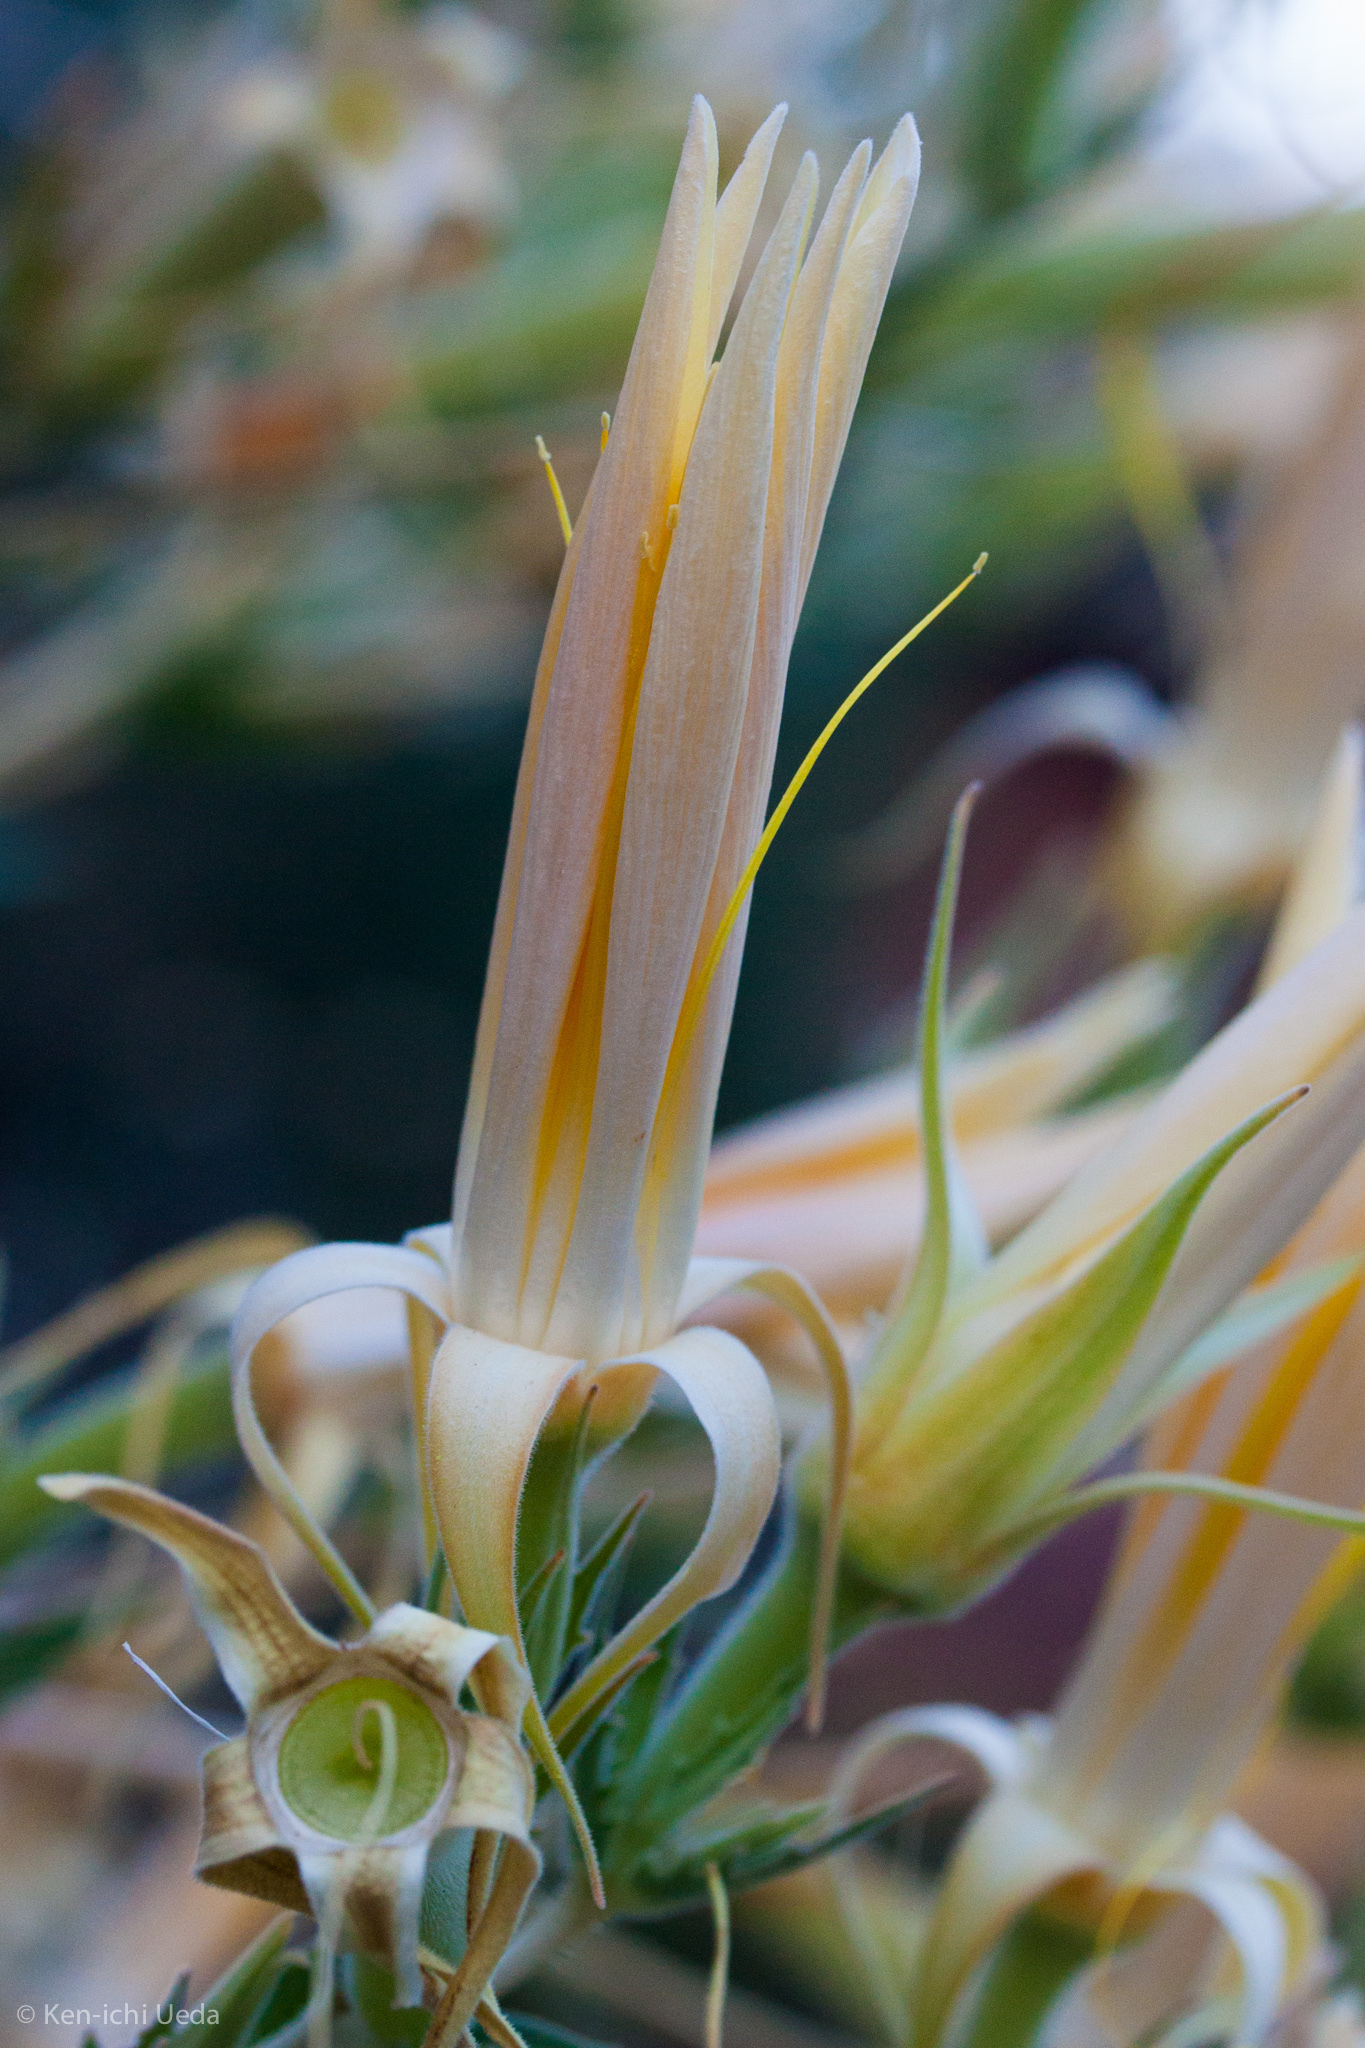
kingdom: Plantae
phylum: Tracheophyta
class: Magnoliopsida
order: Cornales
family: Loasaceae
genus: Mentzelia
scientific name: Mentzelia laevicaulis
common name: Smooth-stem blazingstar
